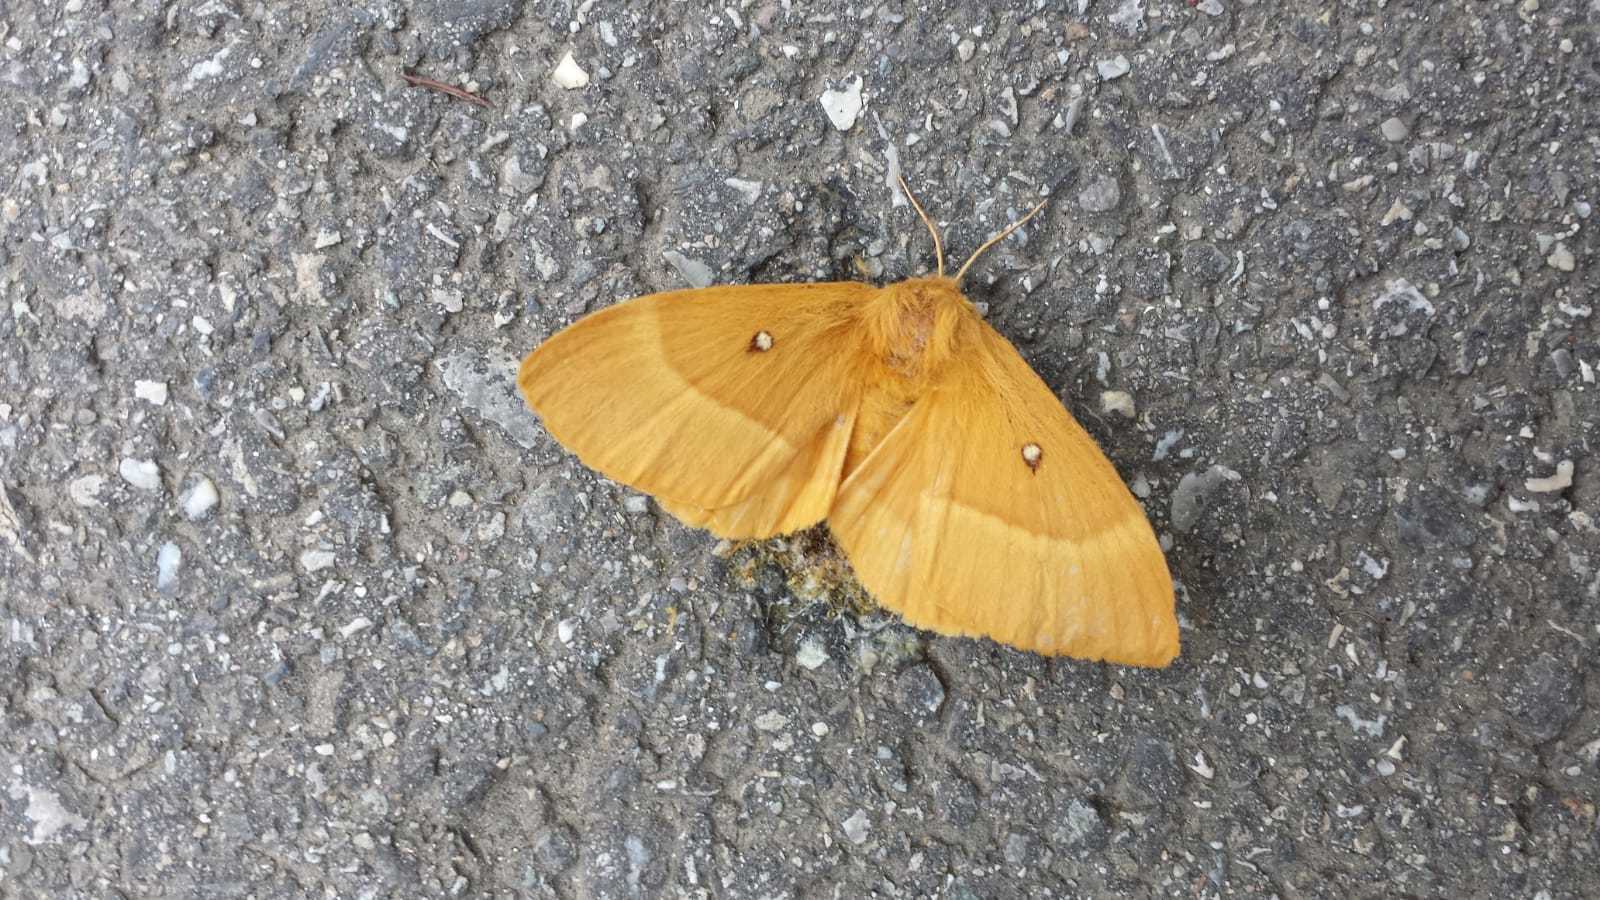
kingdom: Animalia
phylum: Arthropoda
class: Insecta
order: Lepidoptera
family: Lasiocampidae
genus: Lasiocampa
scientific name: Lasiocampa quercus
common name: Oak eggar
